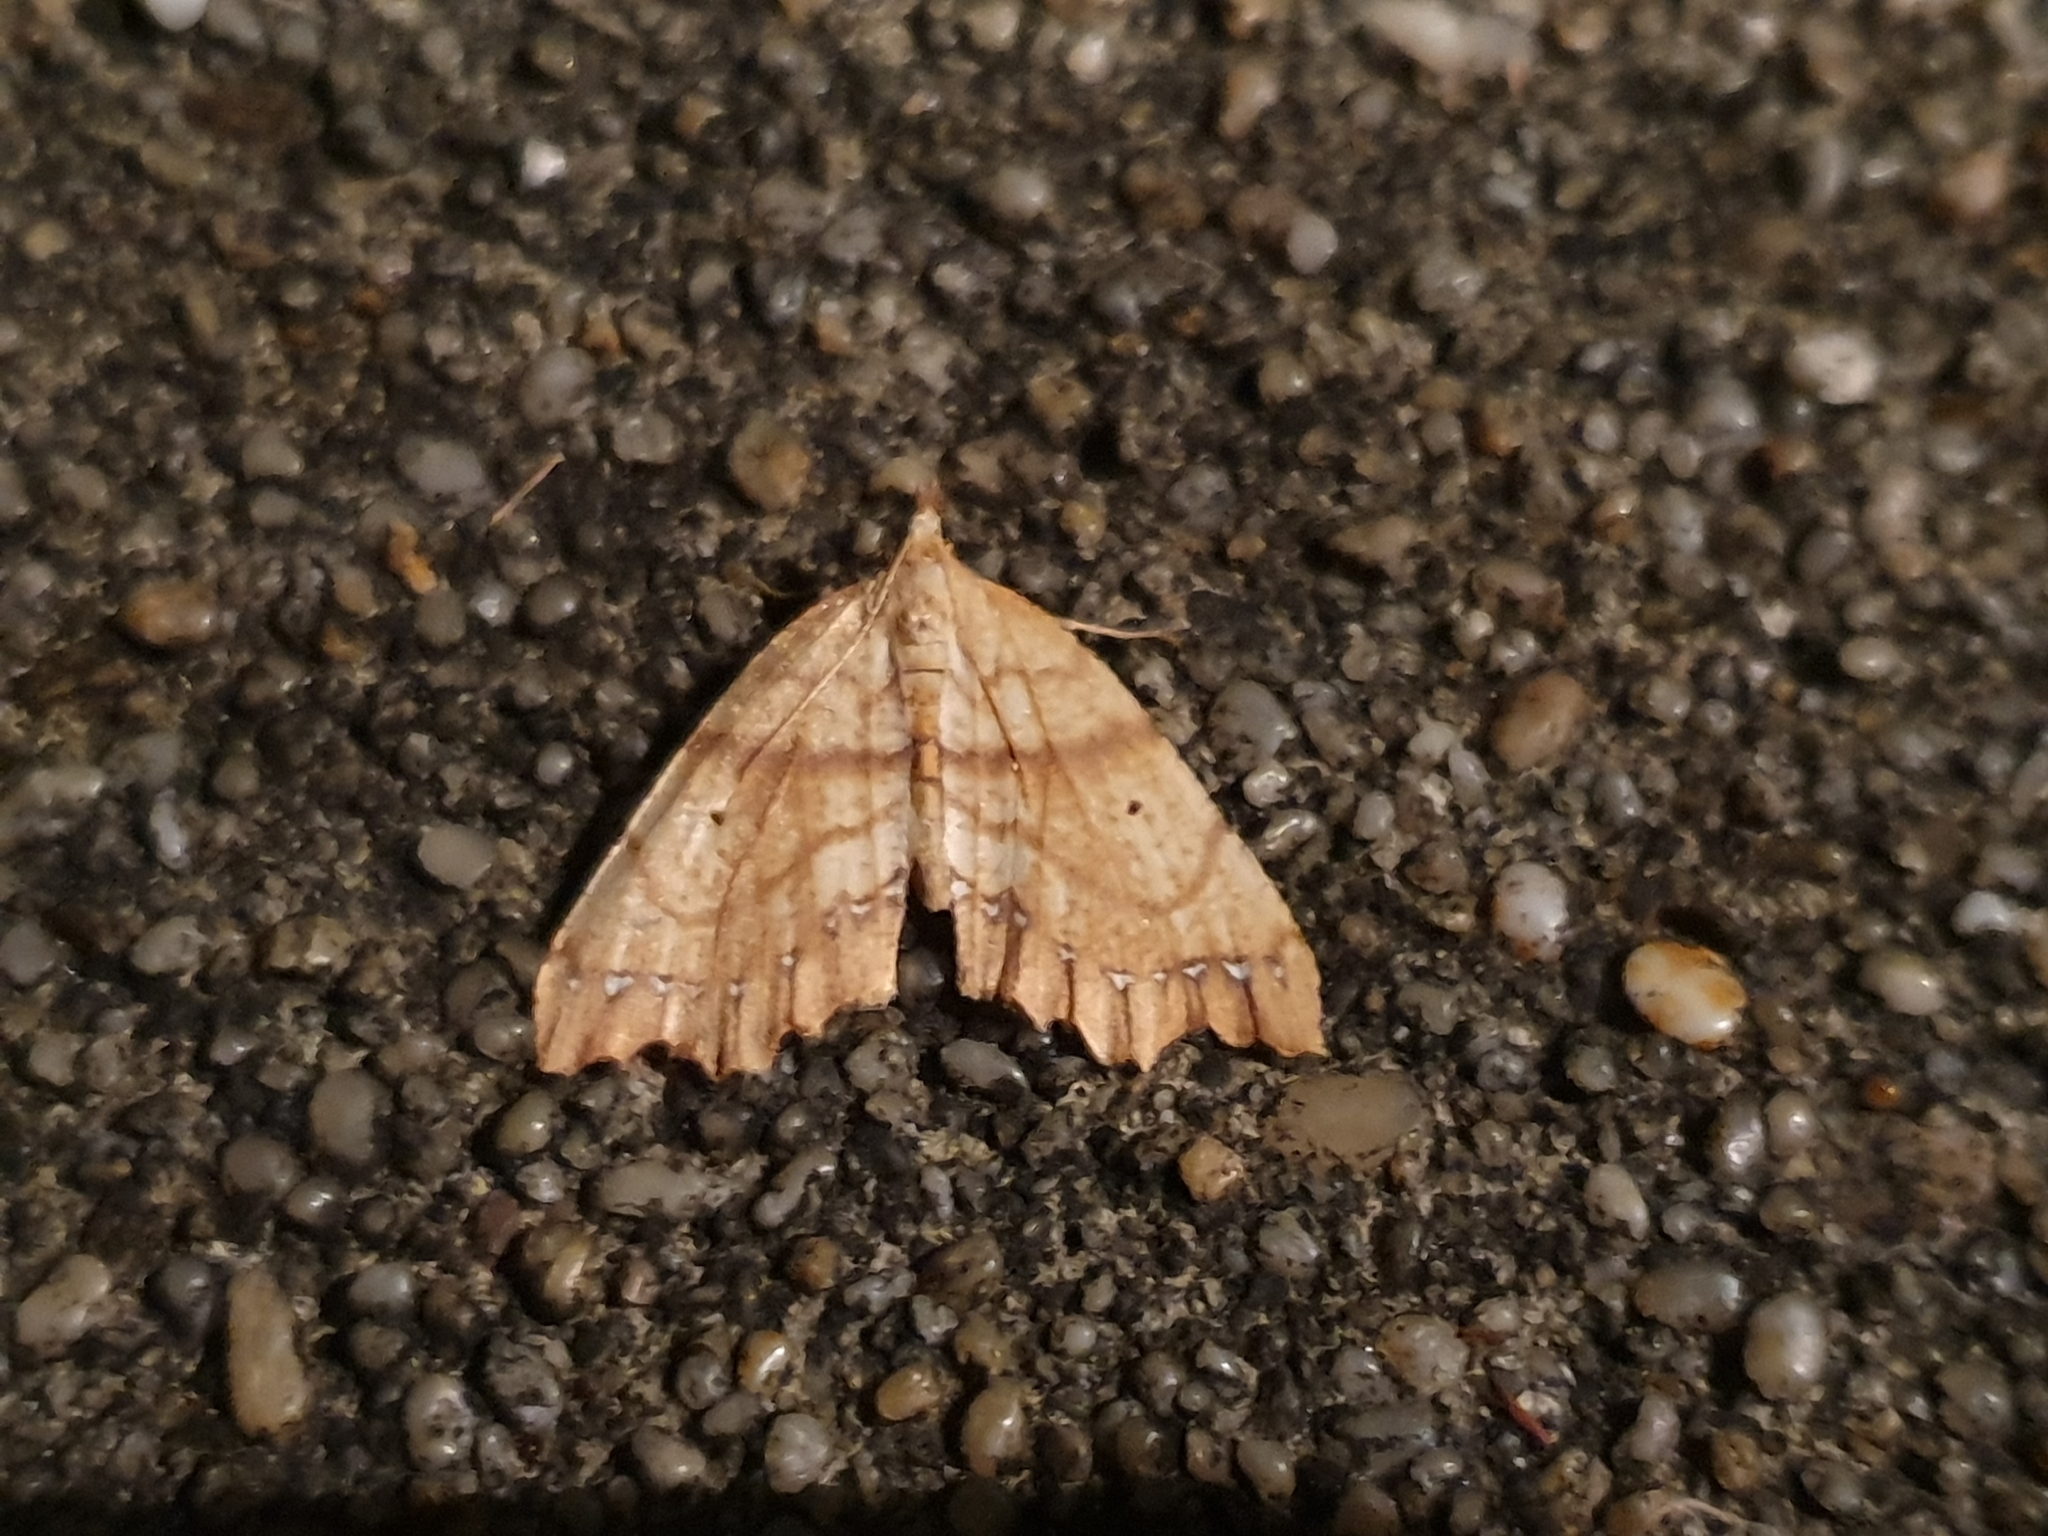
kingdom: Animalia
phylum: Arthropoda
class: Insecta
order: Lepidoptera
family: Geometridae
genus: Chalastra
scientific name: Chalastra pellurgata
